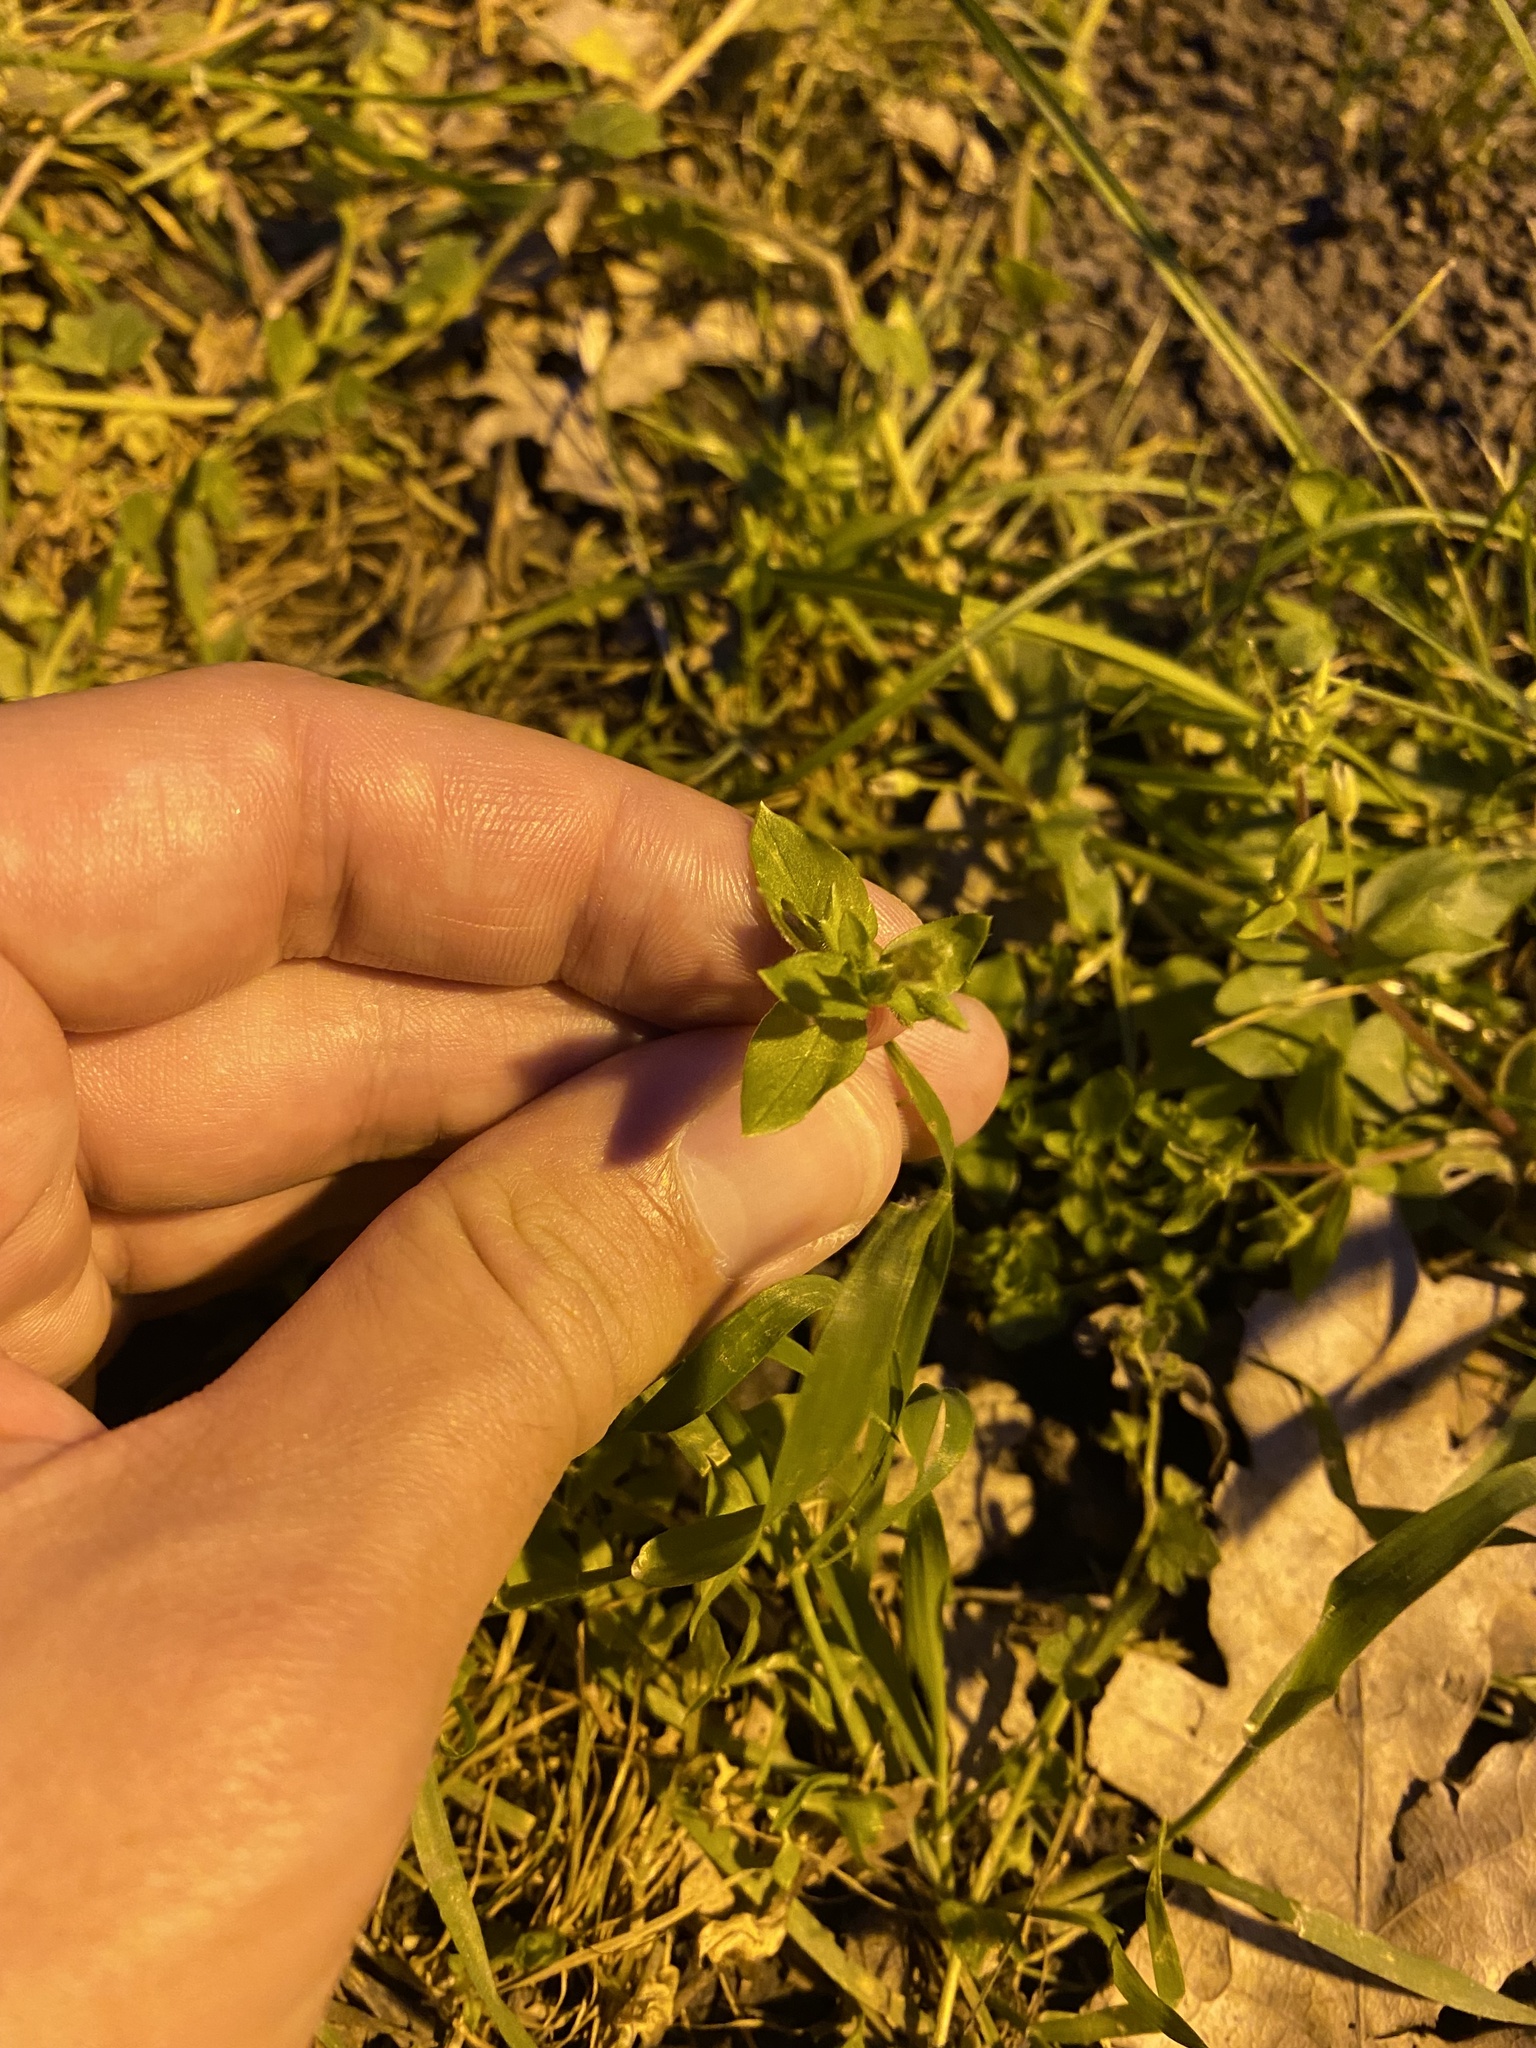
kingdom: Plantae
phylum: Tracheophyta
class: Magnoliopsida
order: Caryophyllales
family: Caryophyllaceae
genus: Stellaria
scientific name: Stellaria media
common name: Common chickweed
